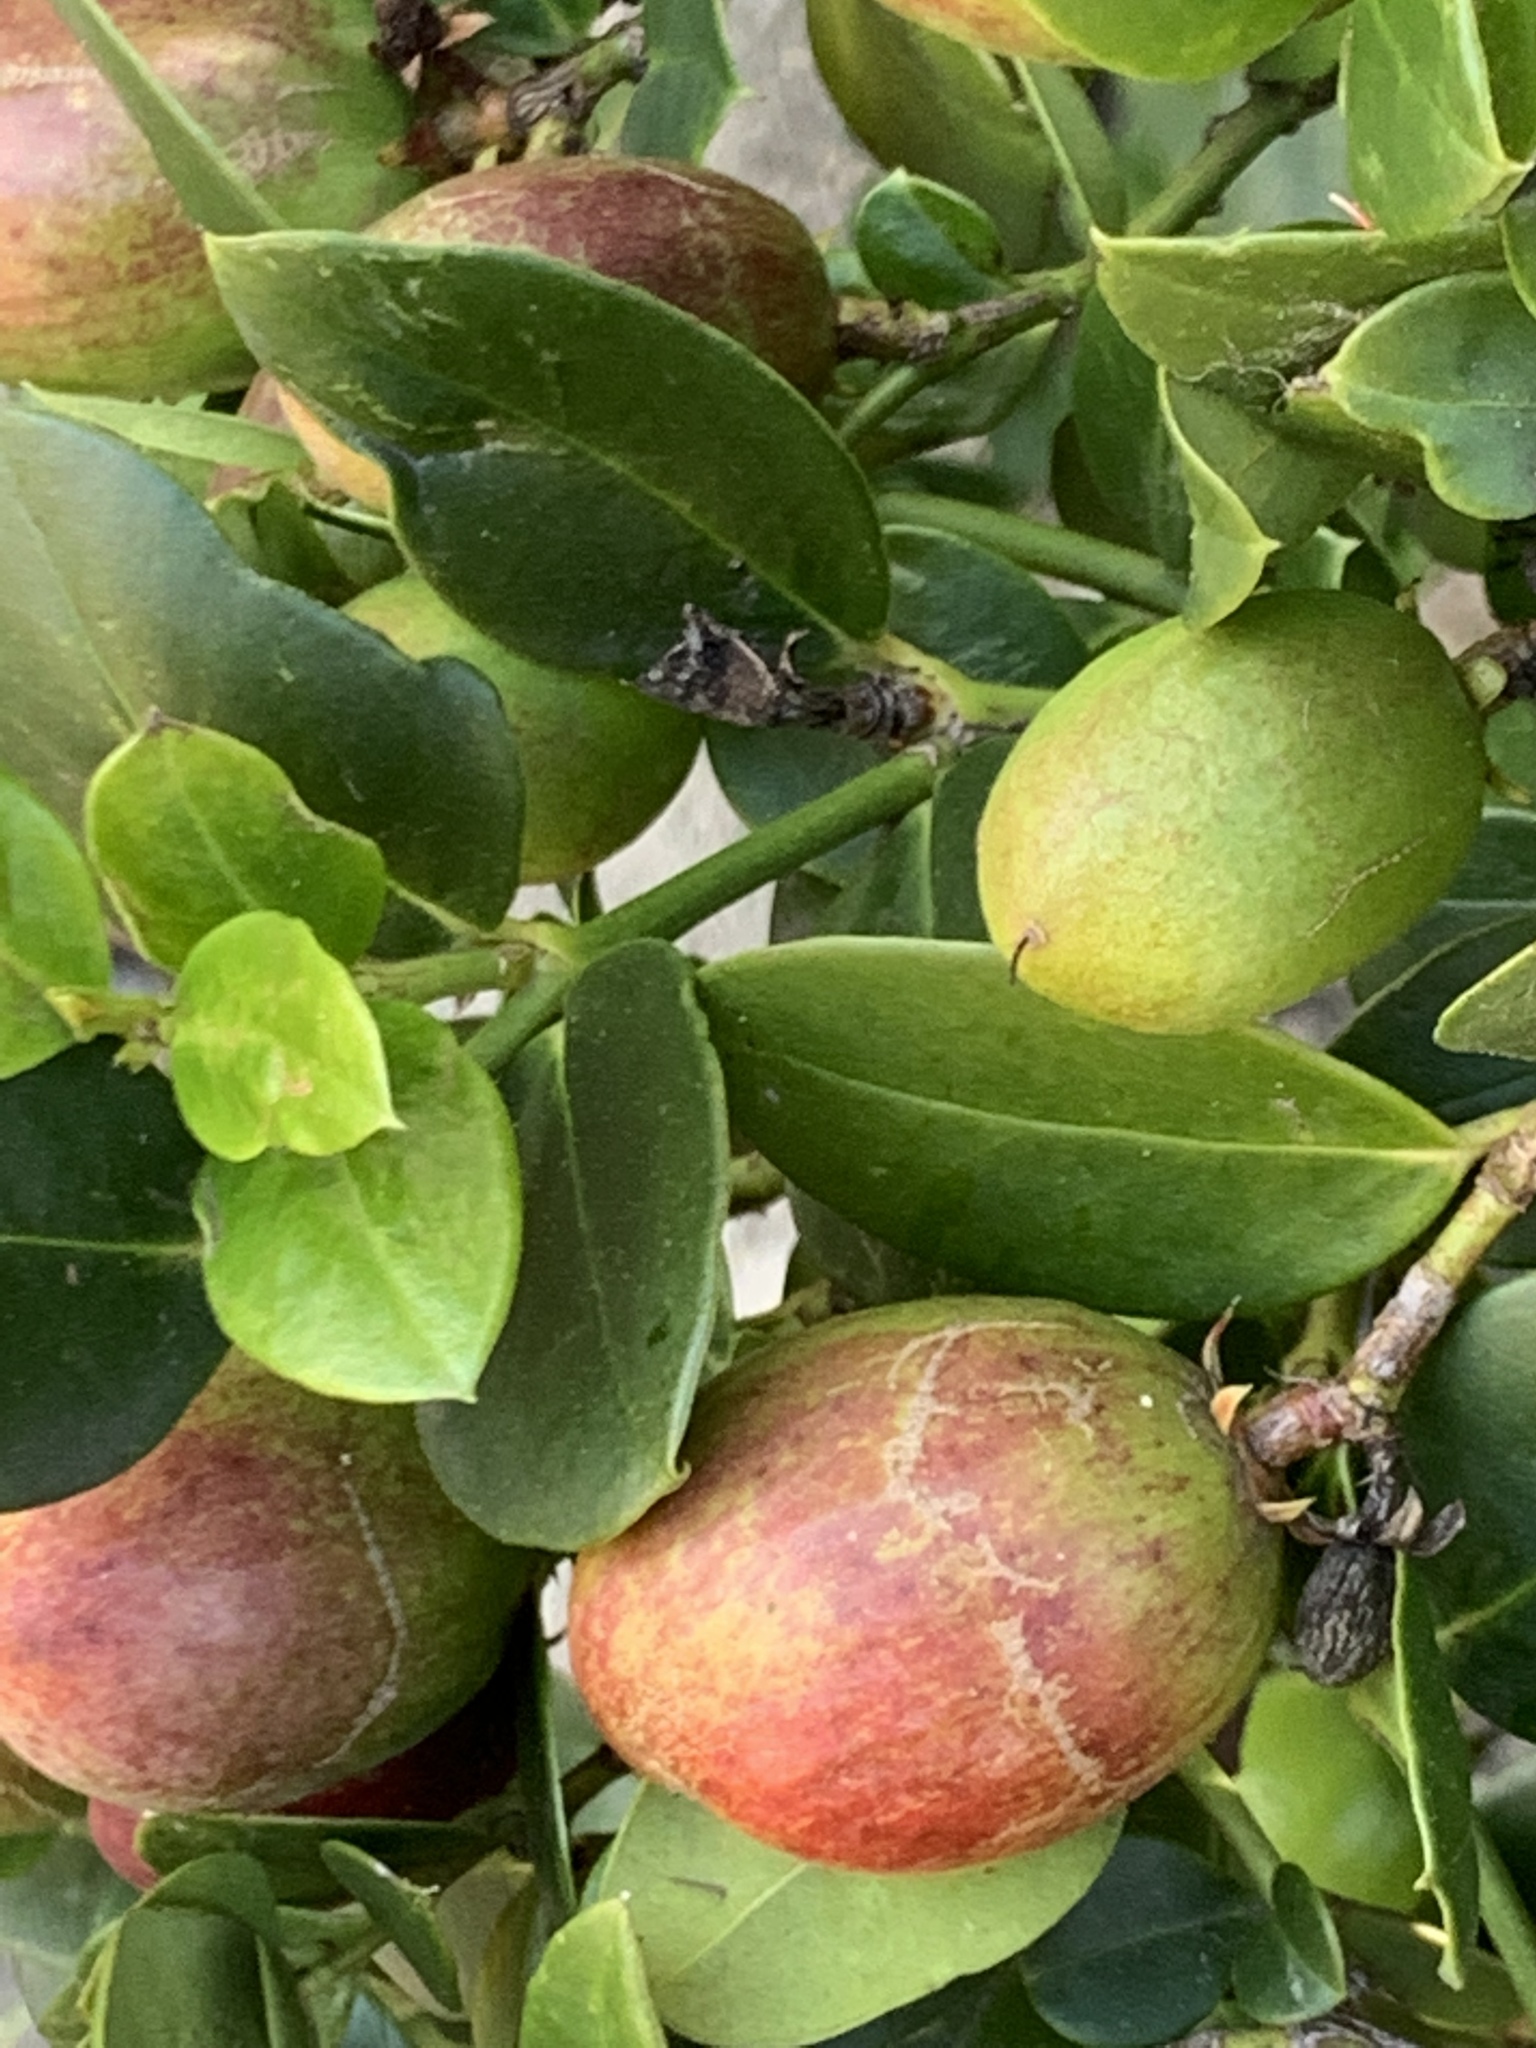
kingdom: Plantae
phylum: Tracheophyta
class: Magnoliopsida
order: Gentianales
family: Apocynaceae
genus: Carissa
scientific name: Carissa macrocarpa
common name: Natal plum
